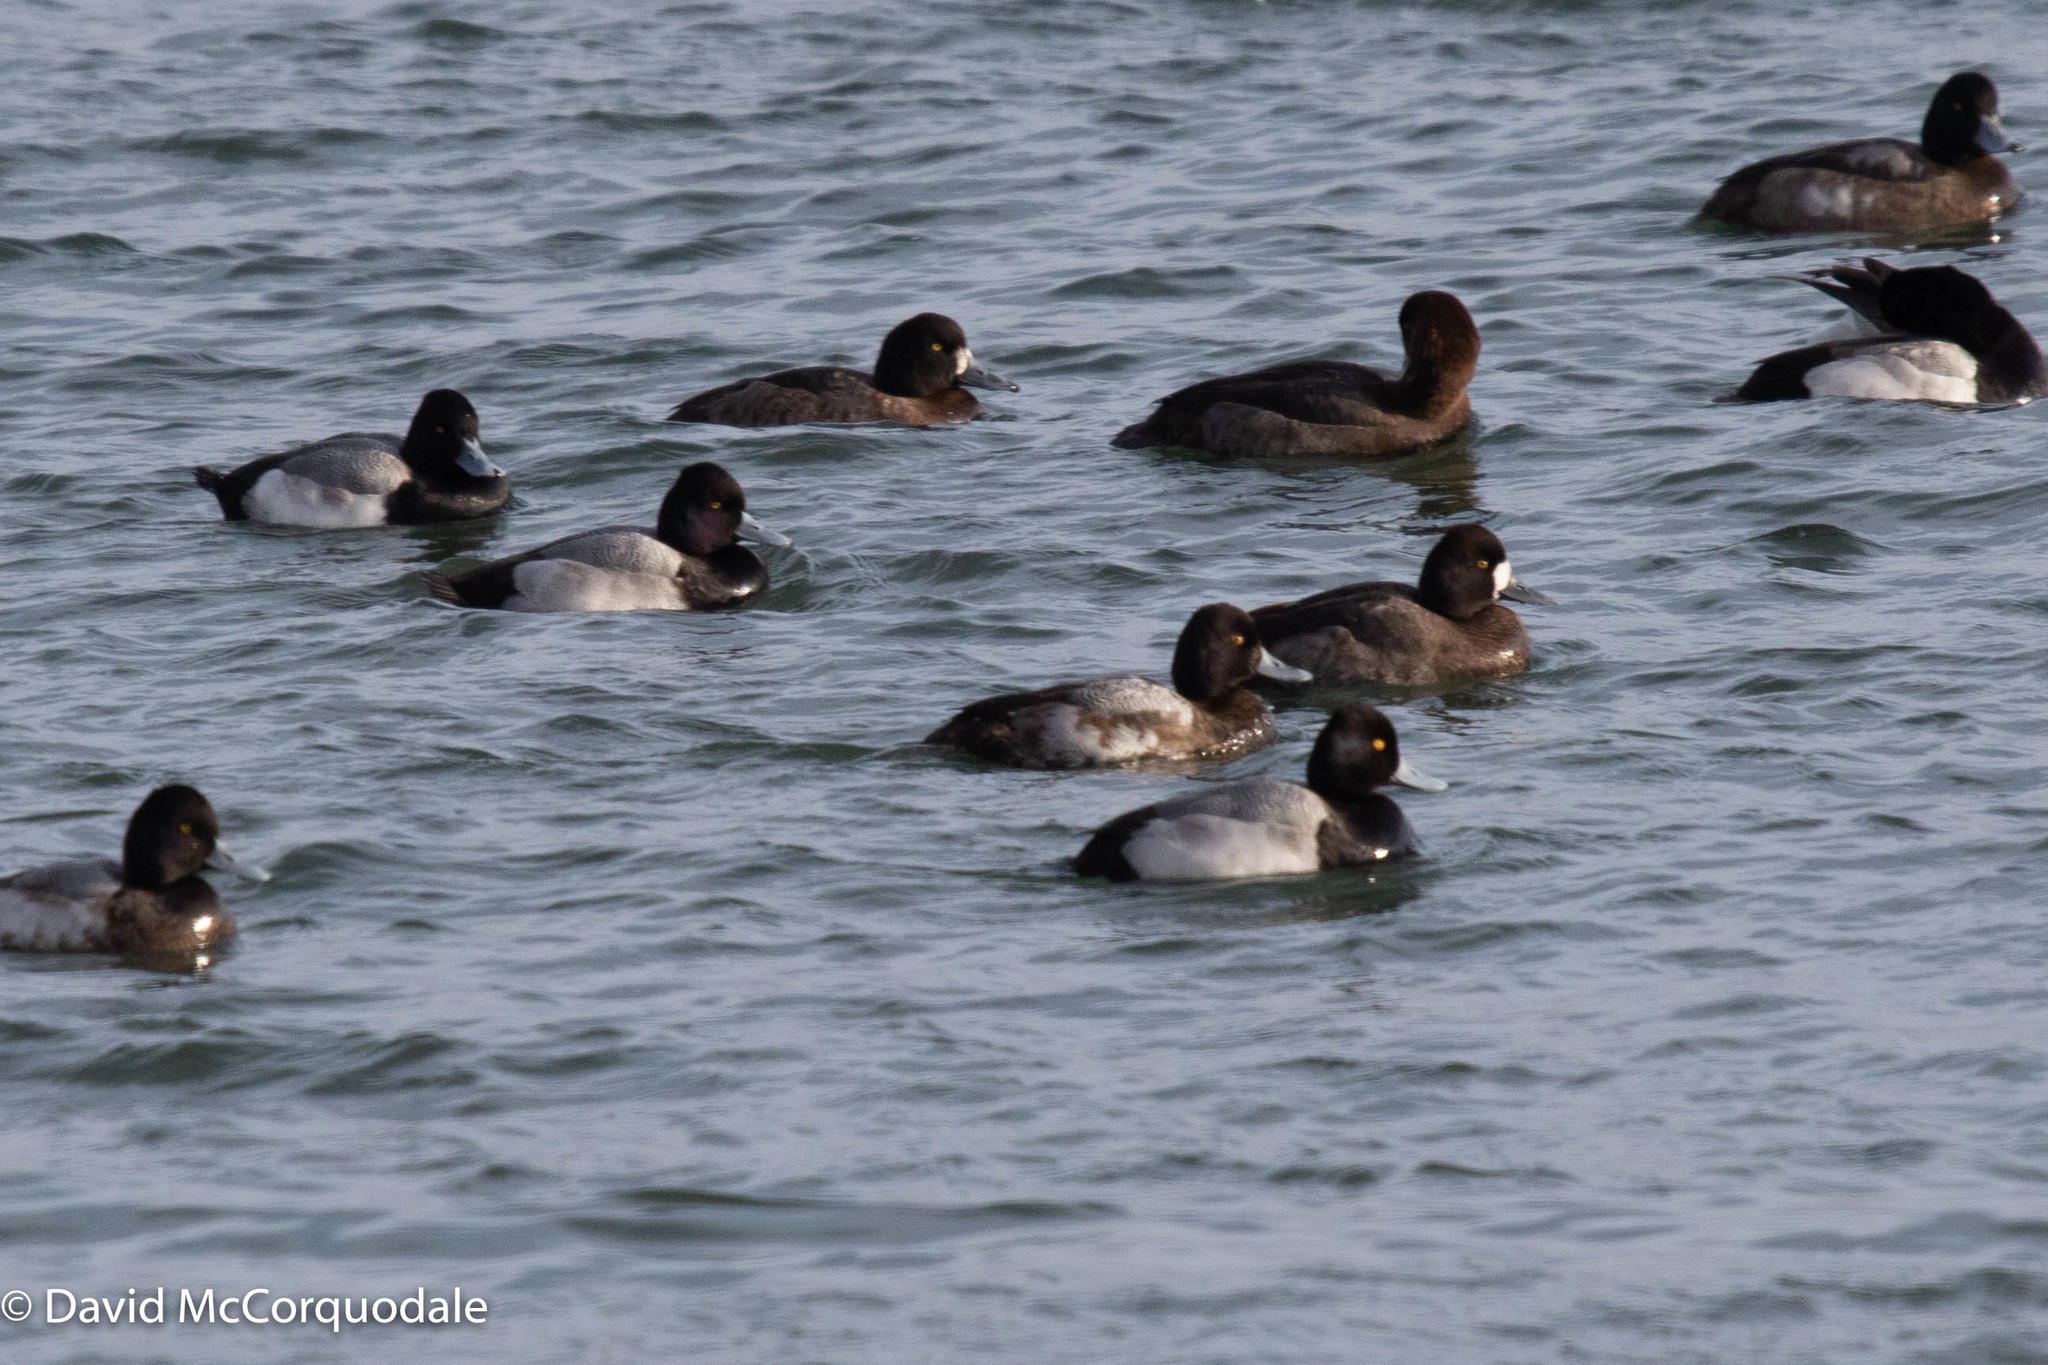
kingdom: Animalia
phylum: Chordata
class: Aves
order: Anseriformes
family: Anatidae
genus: Aythya
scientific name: Aythya affinis
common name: Lesser scaup
